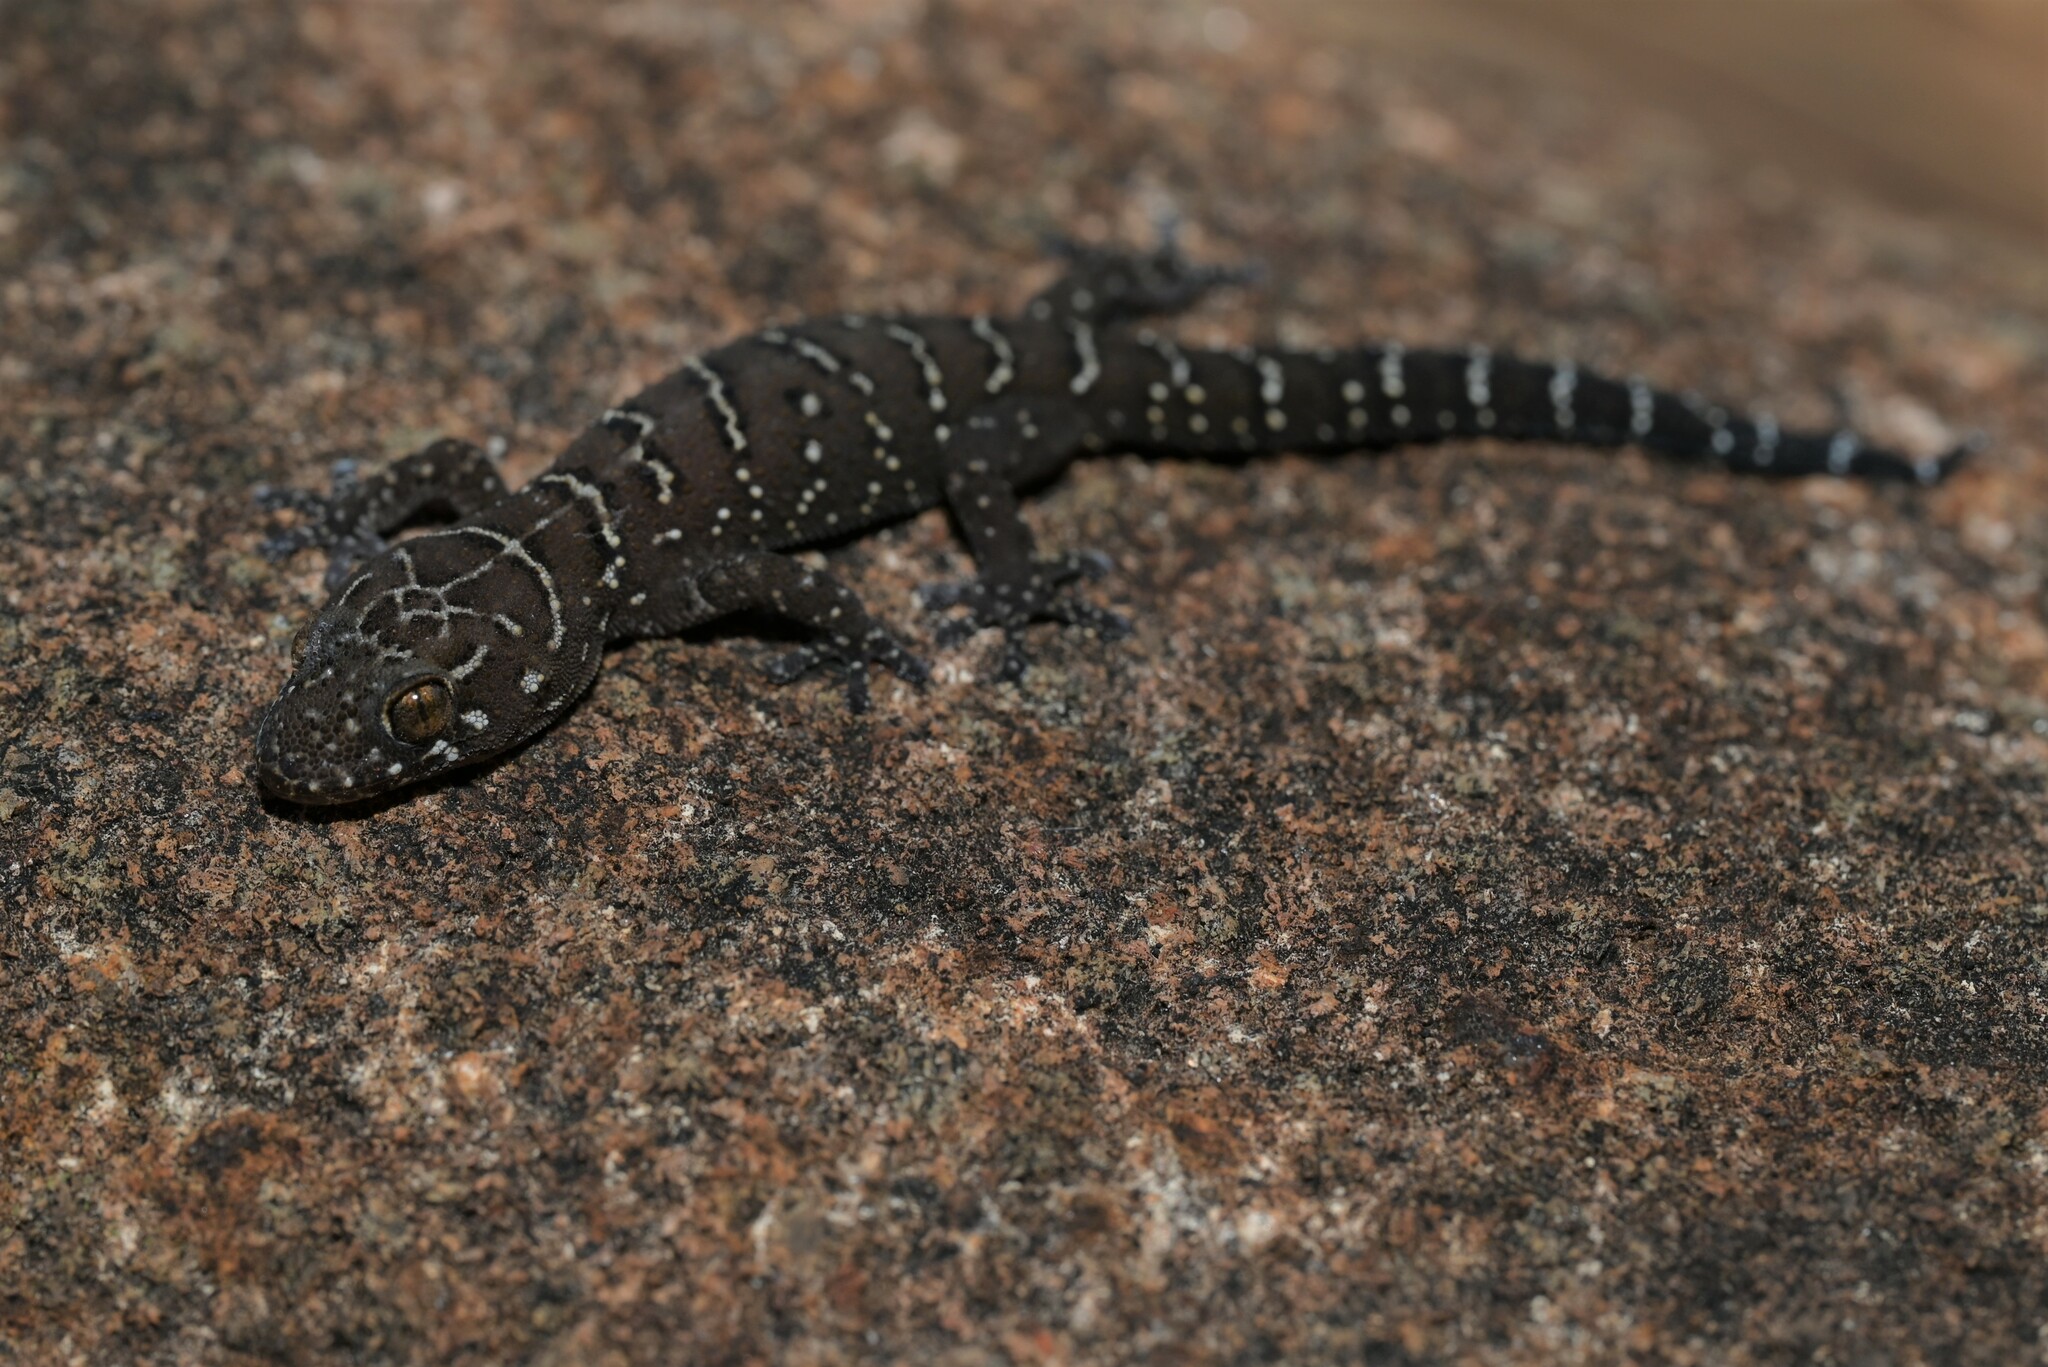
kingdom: Animalia
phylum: Chordata
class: Squamata
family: Gekkonidae
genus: Pachydactylus
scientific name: Pachydactylus vansoni
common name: Van son's gecko
